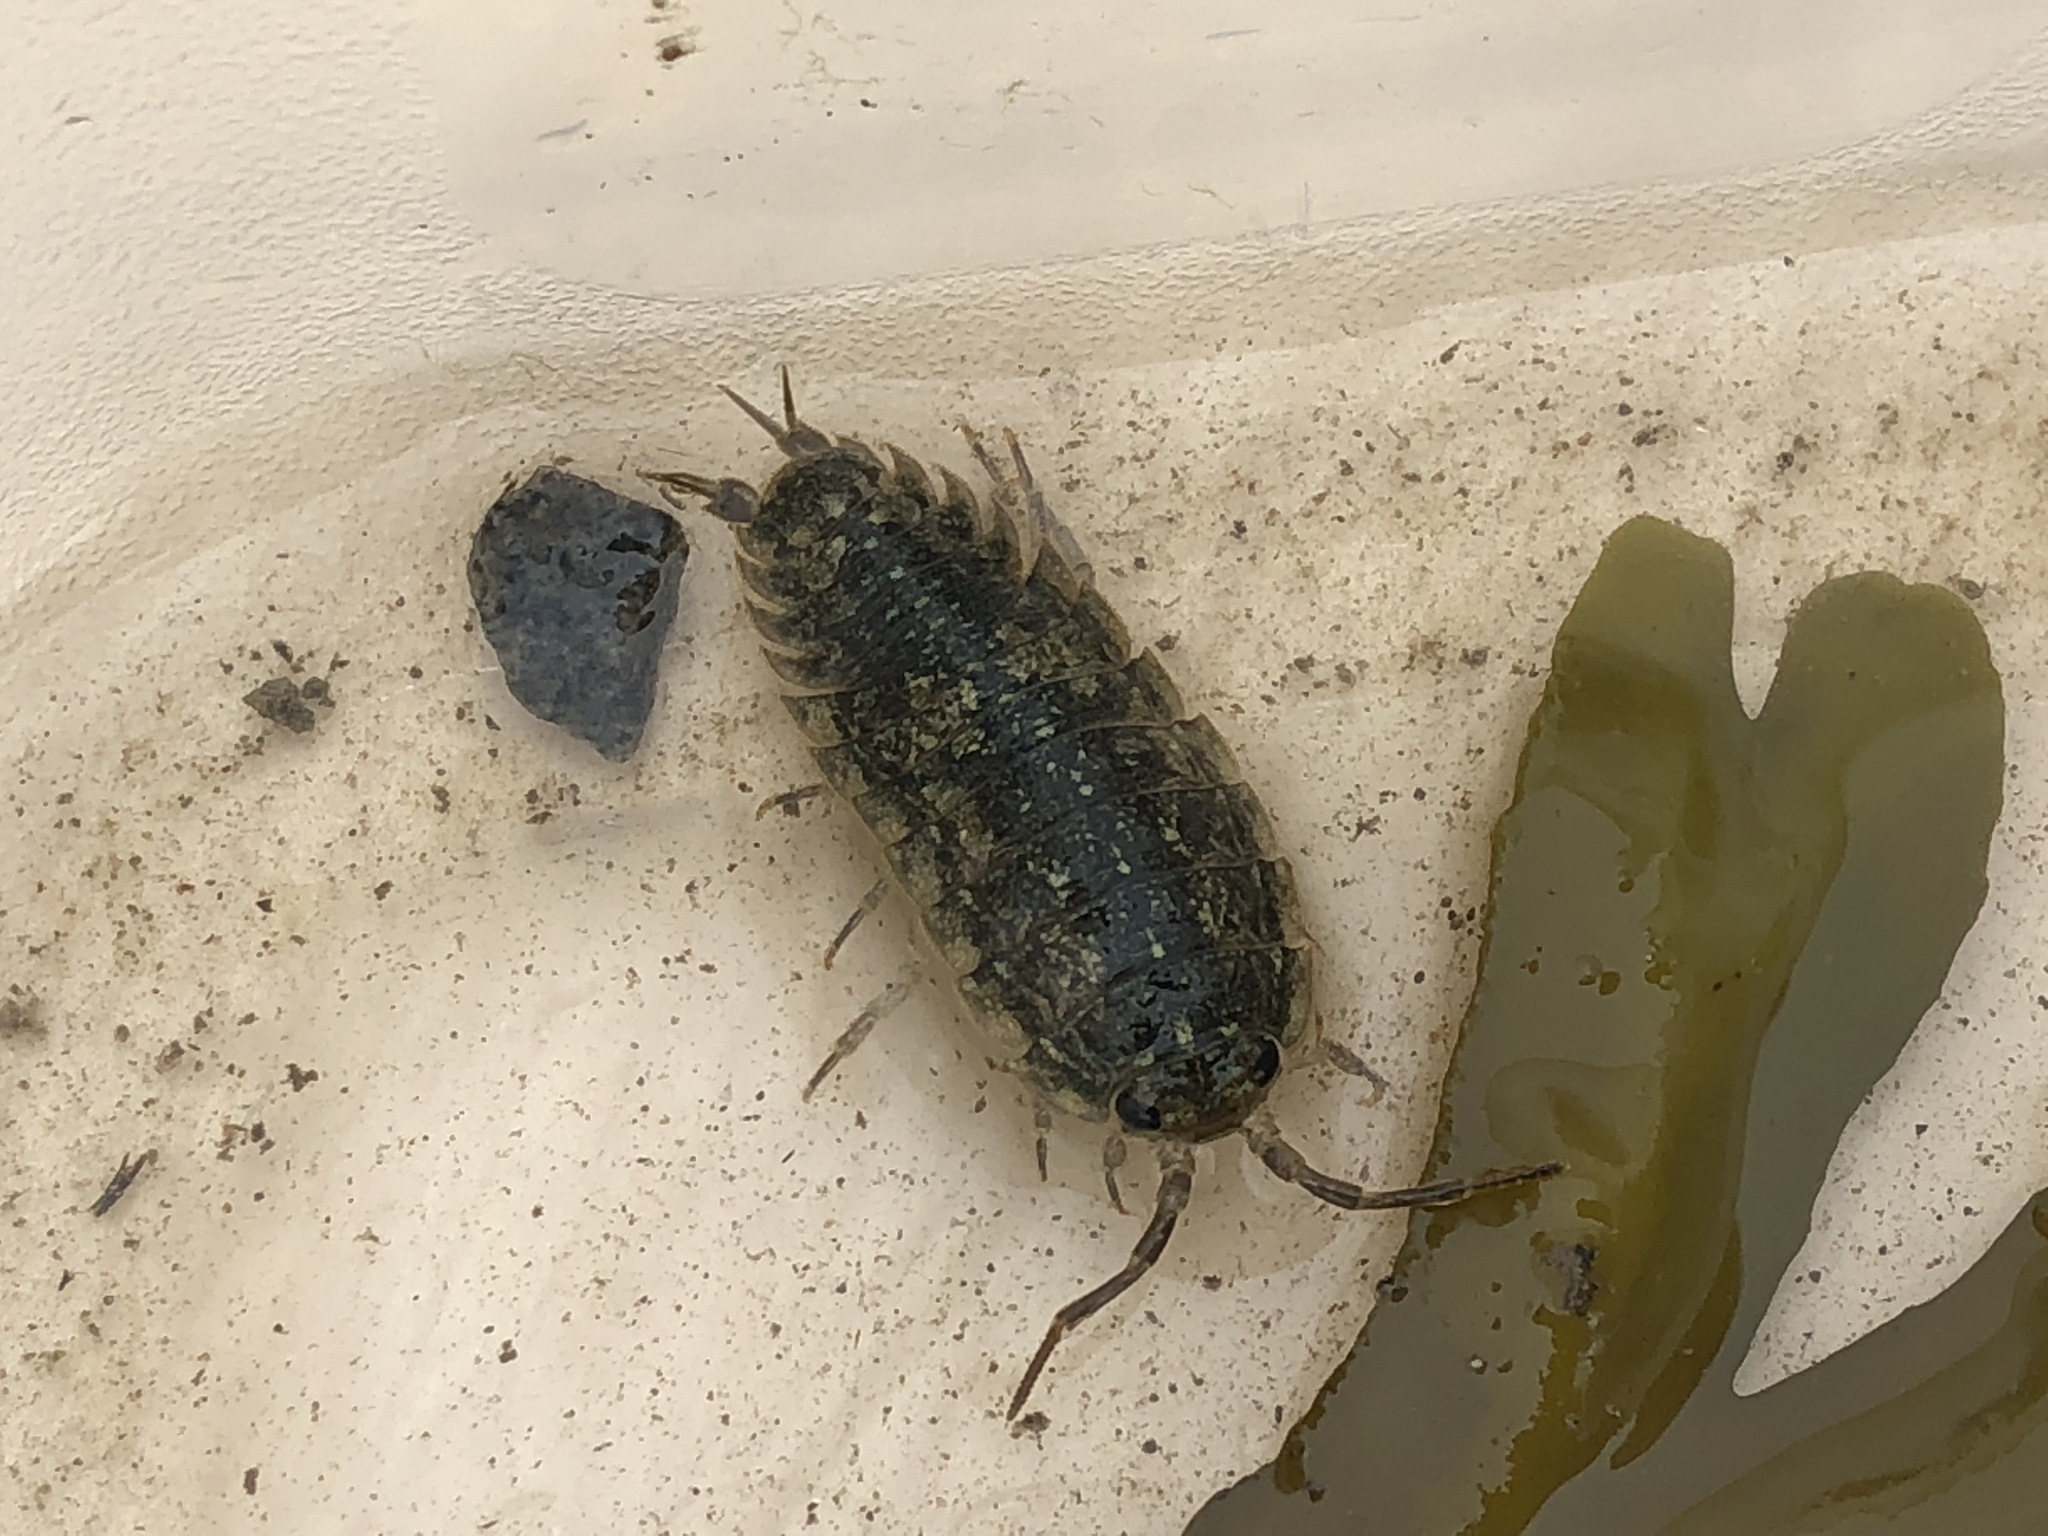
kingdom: Animalia
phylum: Arthropoda
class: Malacostraca
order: Isopoda
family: Ligiidae
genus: Ligia
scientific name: Ligia pallasii
